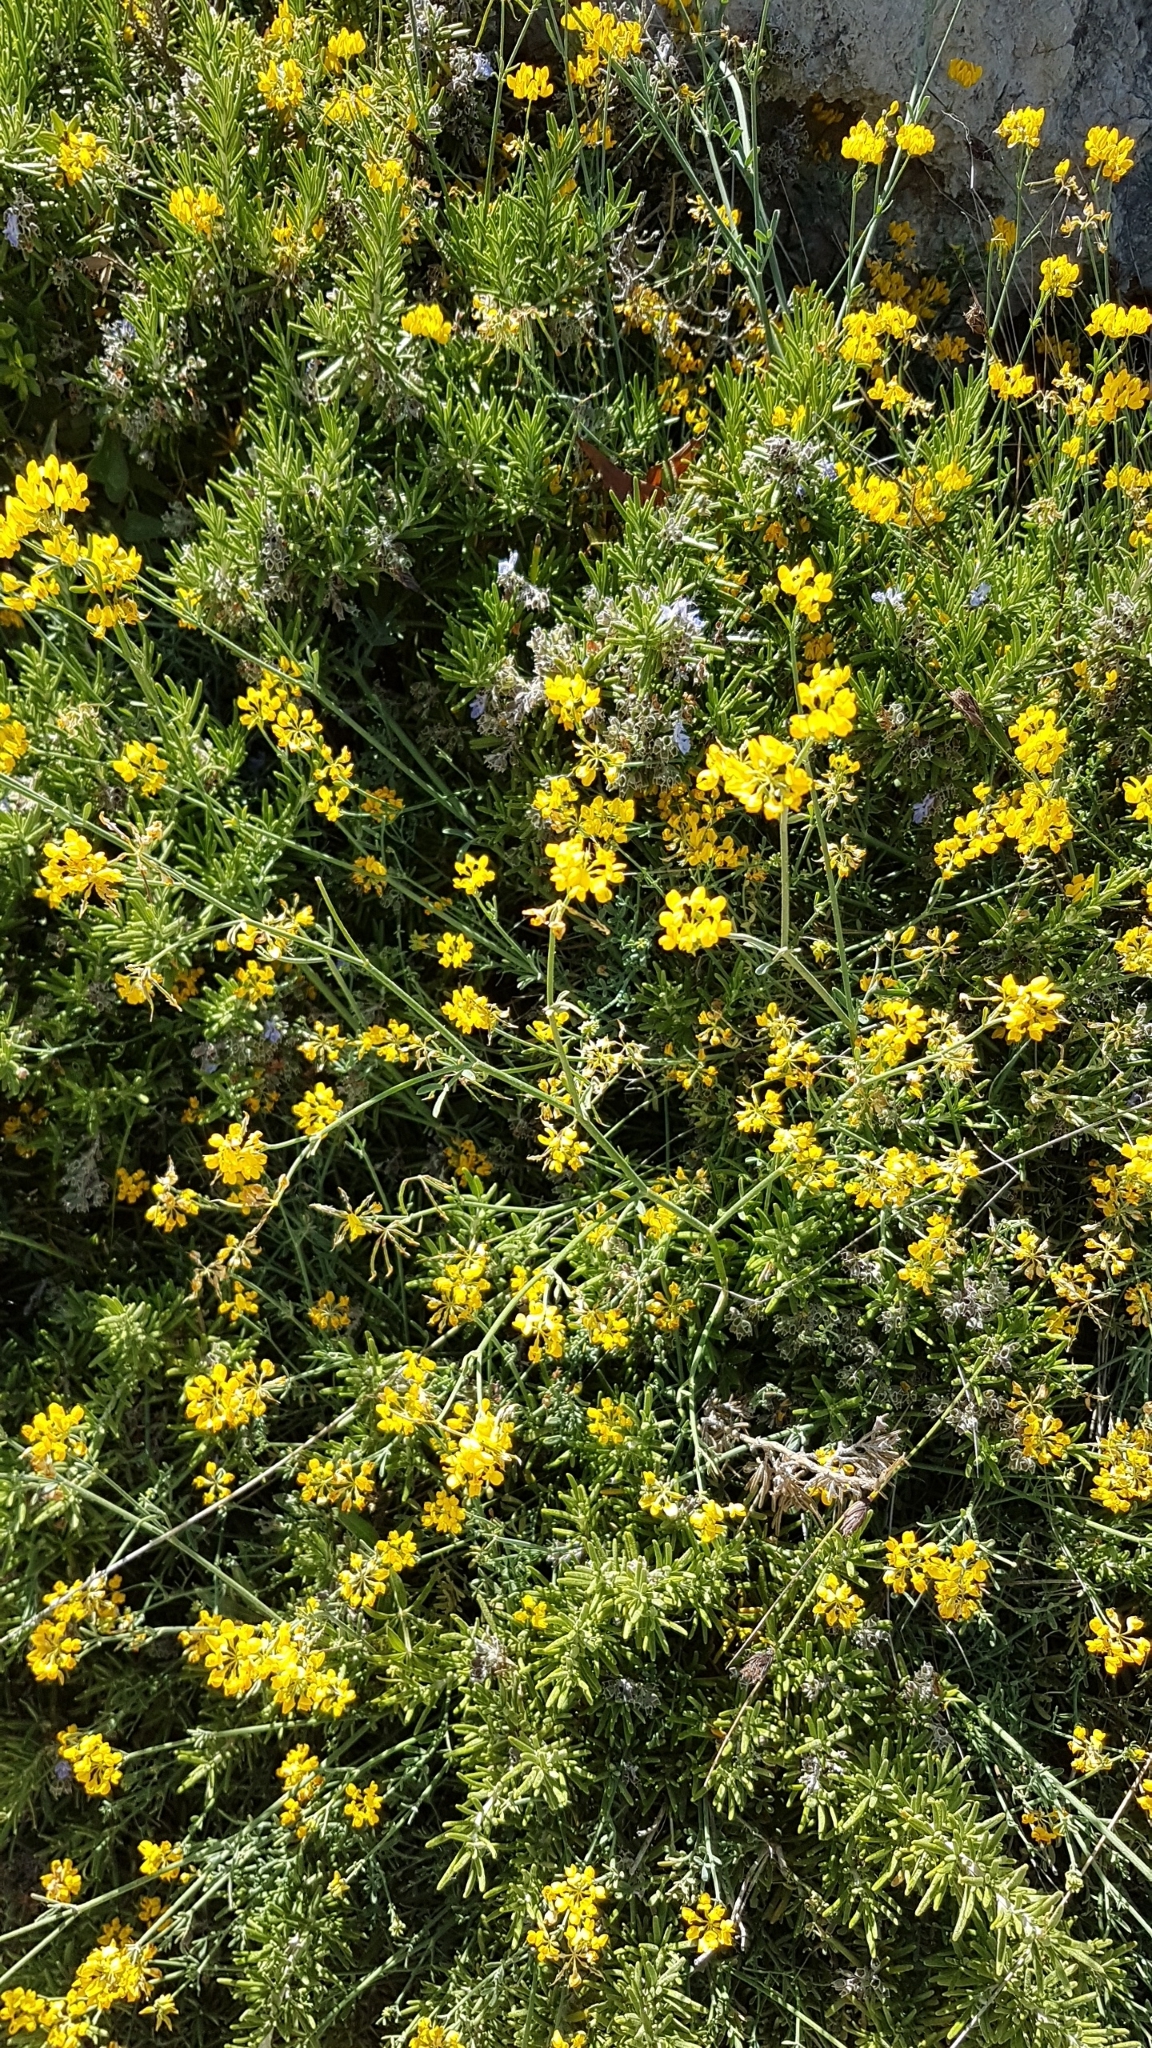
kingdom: Plantae
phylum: Tracheophyta
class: Magnoliopsida
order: Fabales
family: Fabaceae
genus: Coronilla
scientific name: Coronilla juncea
